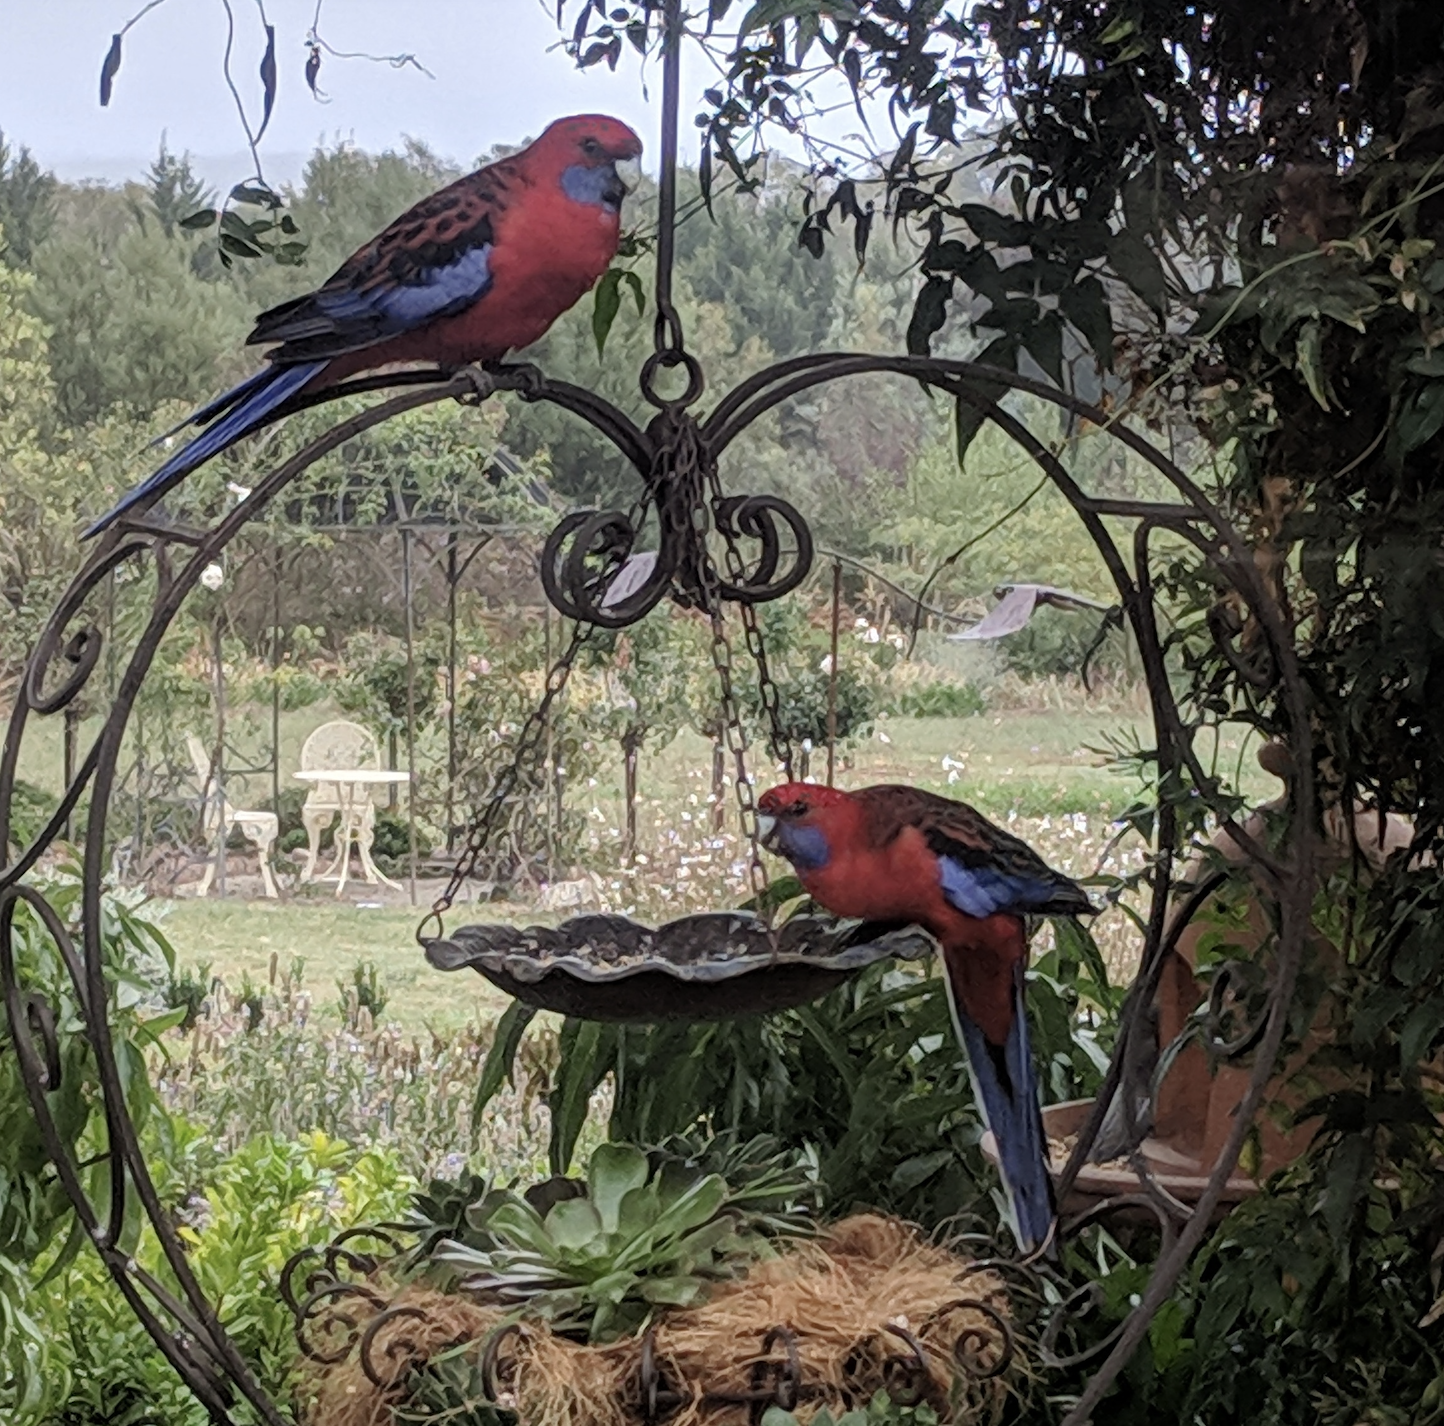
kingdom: Animalia
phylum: Chordata
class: Aves
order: Psittaciformes
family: Psittacidae
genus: Platycercus
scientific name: Platycercus elegans
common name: Crimson rosella
